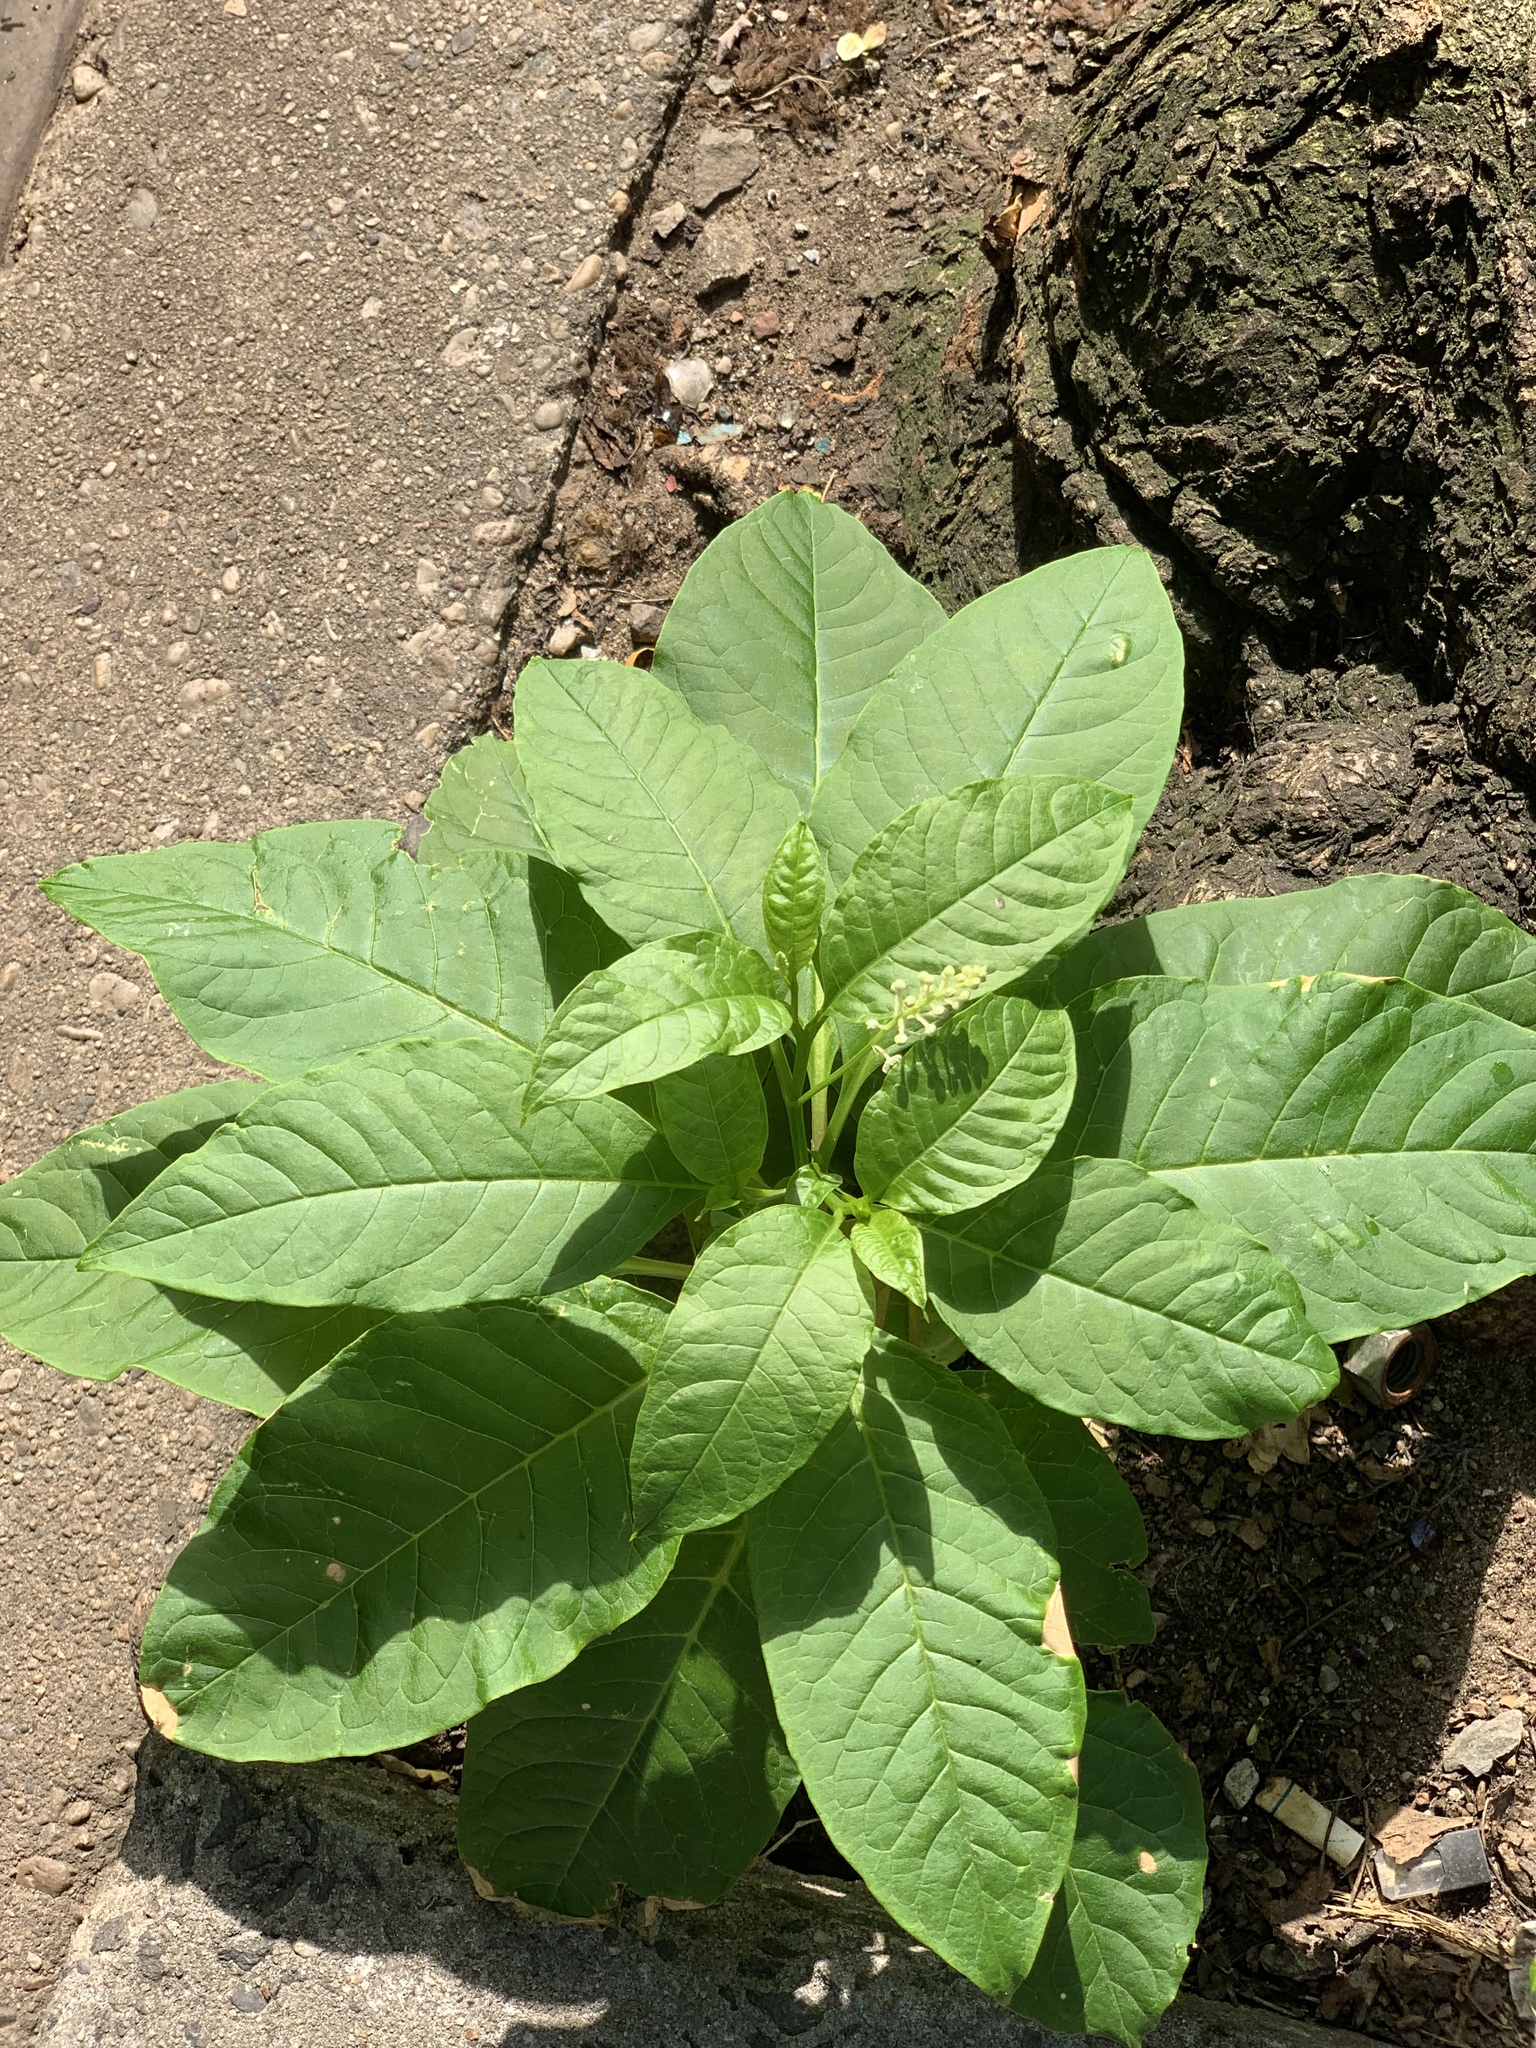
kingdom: Plantae
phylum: Tracheophyta
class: Magnoliopsida
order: Caryophyllales
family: Phytolaccaceae
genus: Phytolacca
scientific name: Phytolacca americana
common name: American pokeweed
